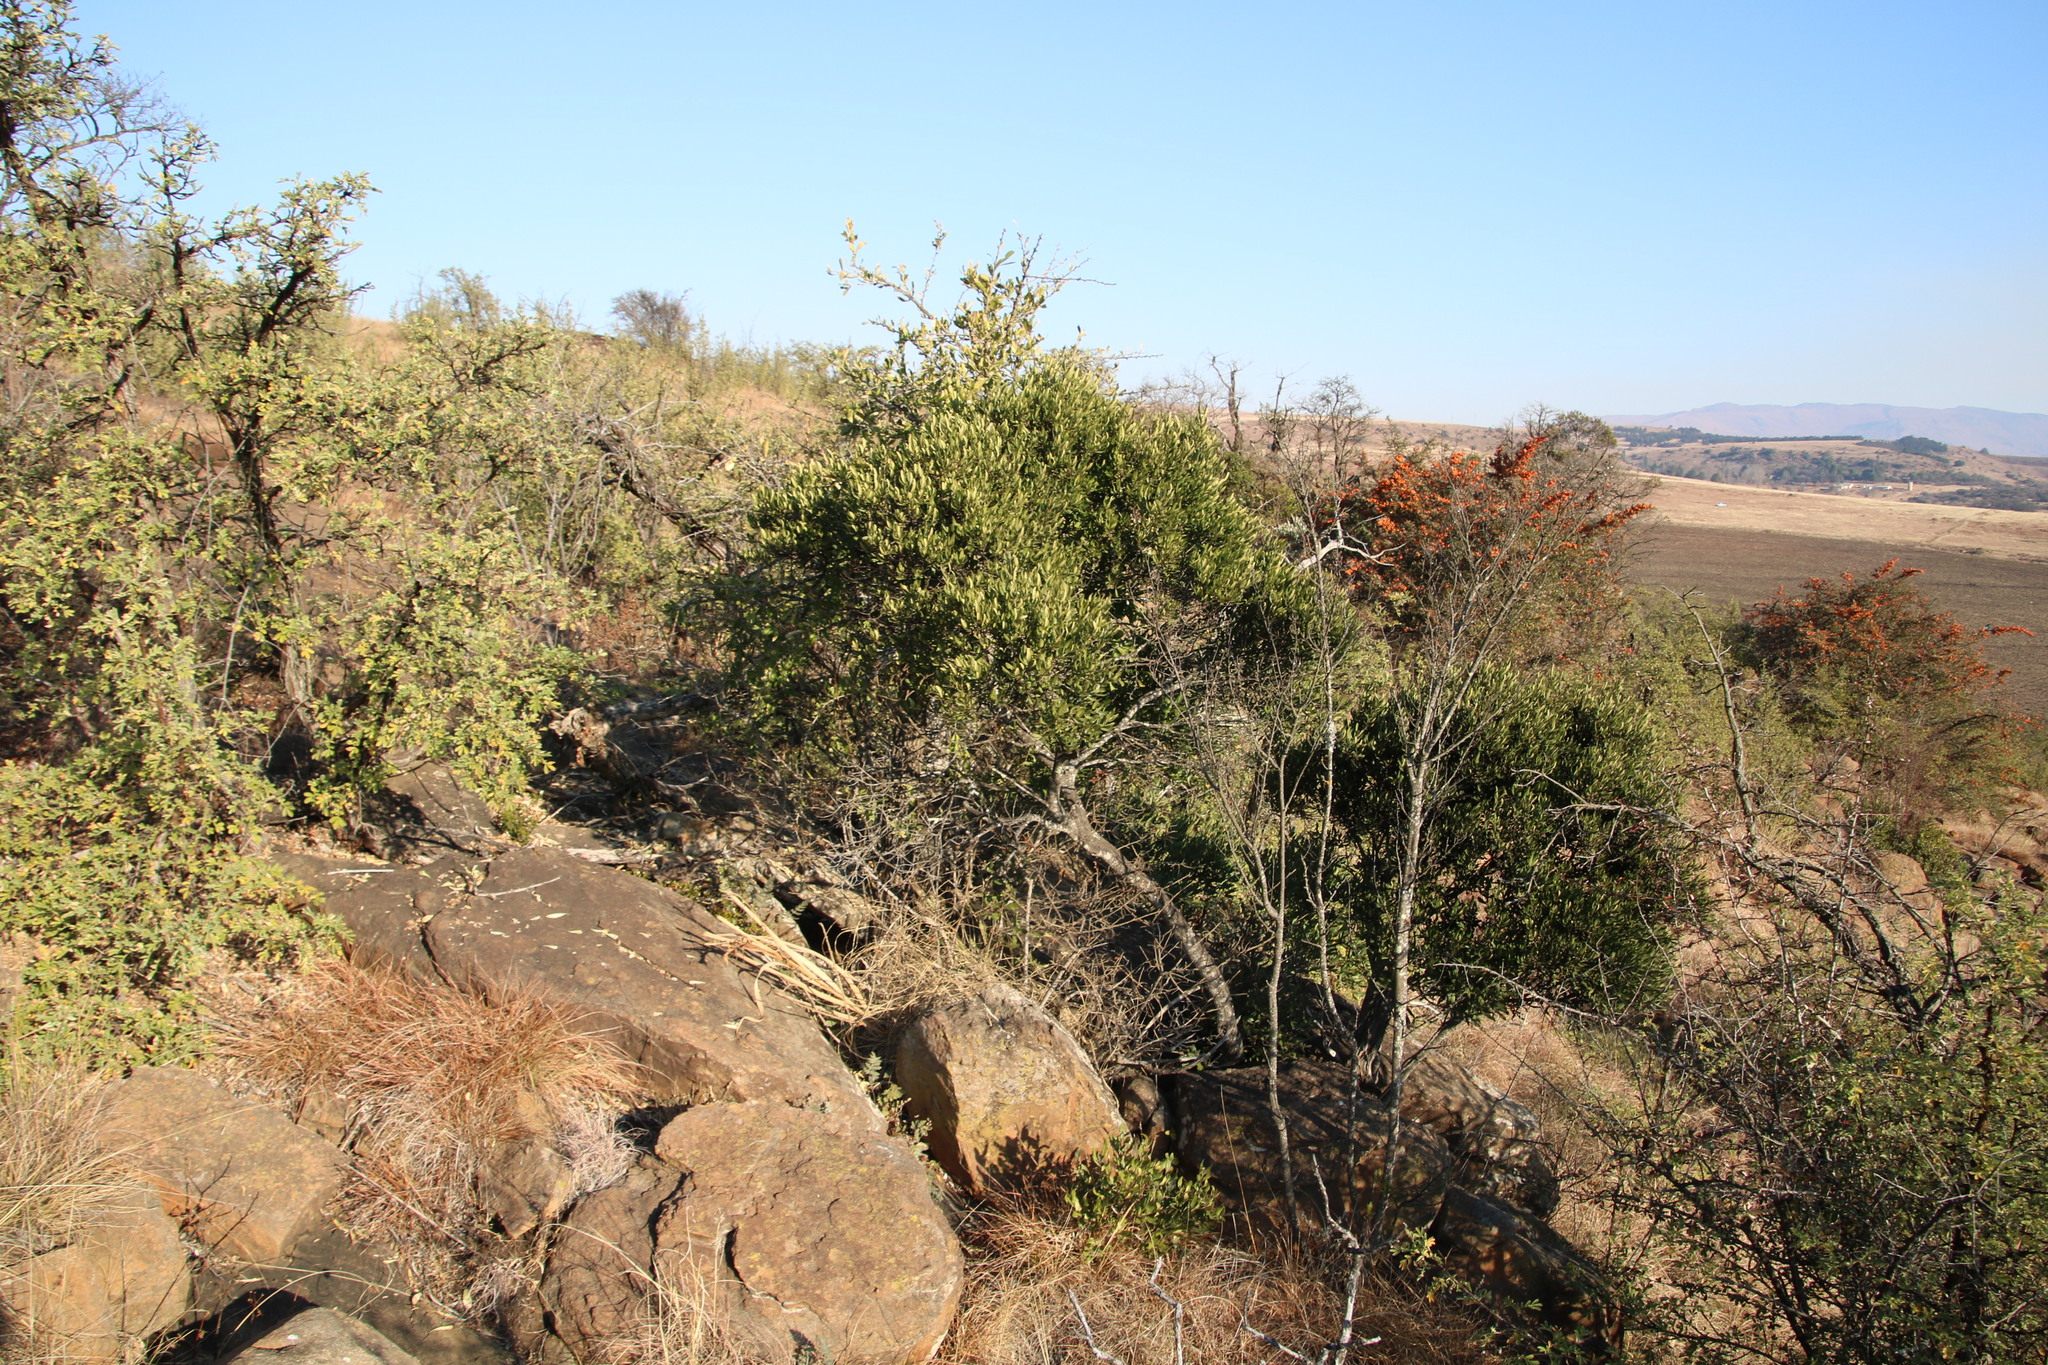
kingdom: Plantae
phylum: Tracheophyta
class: Magnoliopsida
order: Ericales
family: Ebenaceae
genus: Euclea
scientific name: Euclea crispa
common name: Blue guarri
